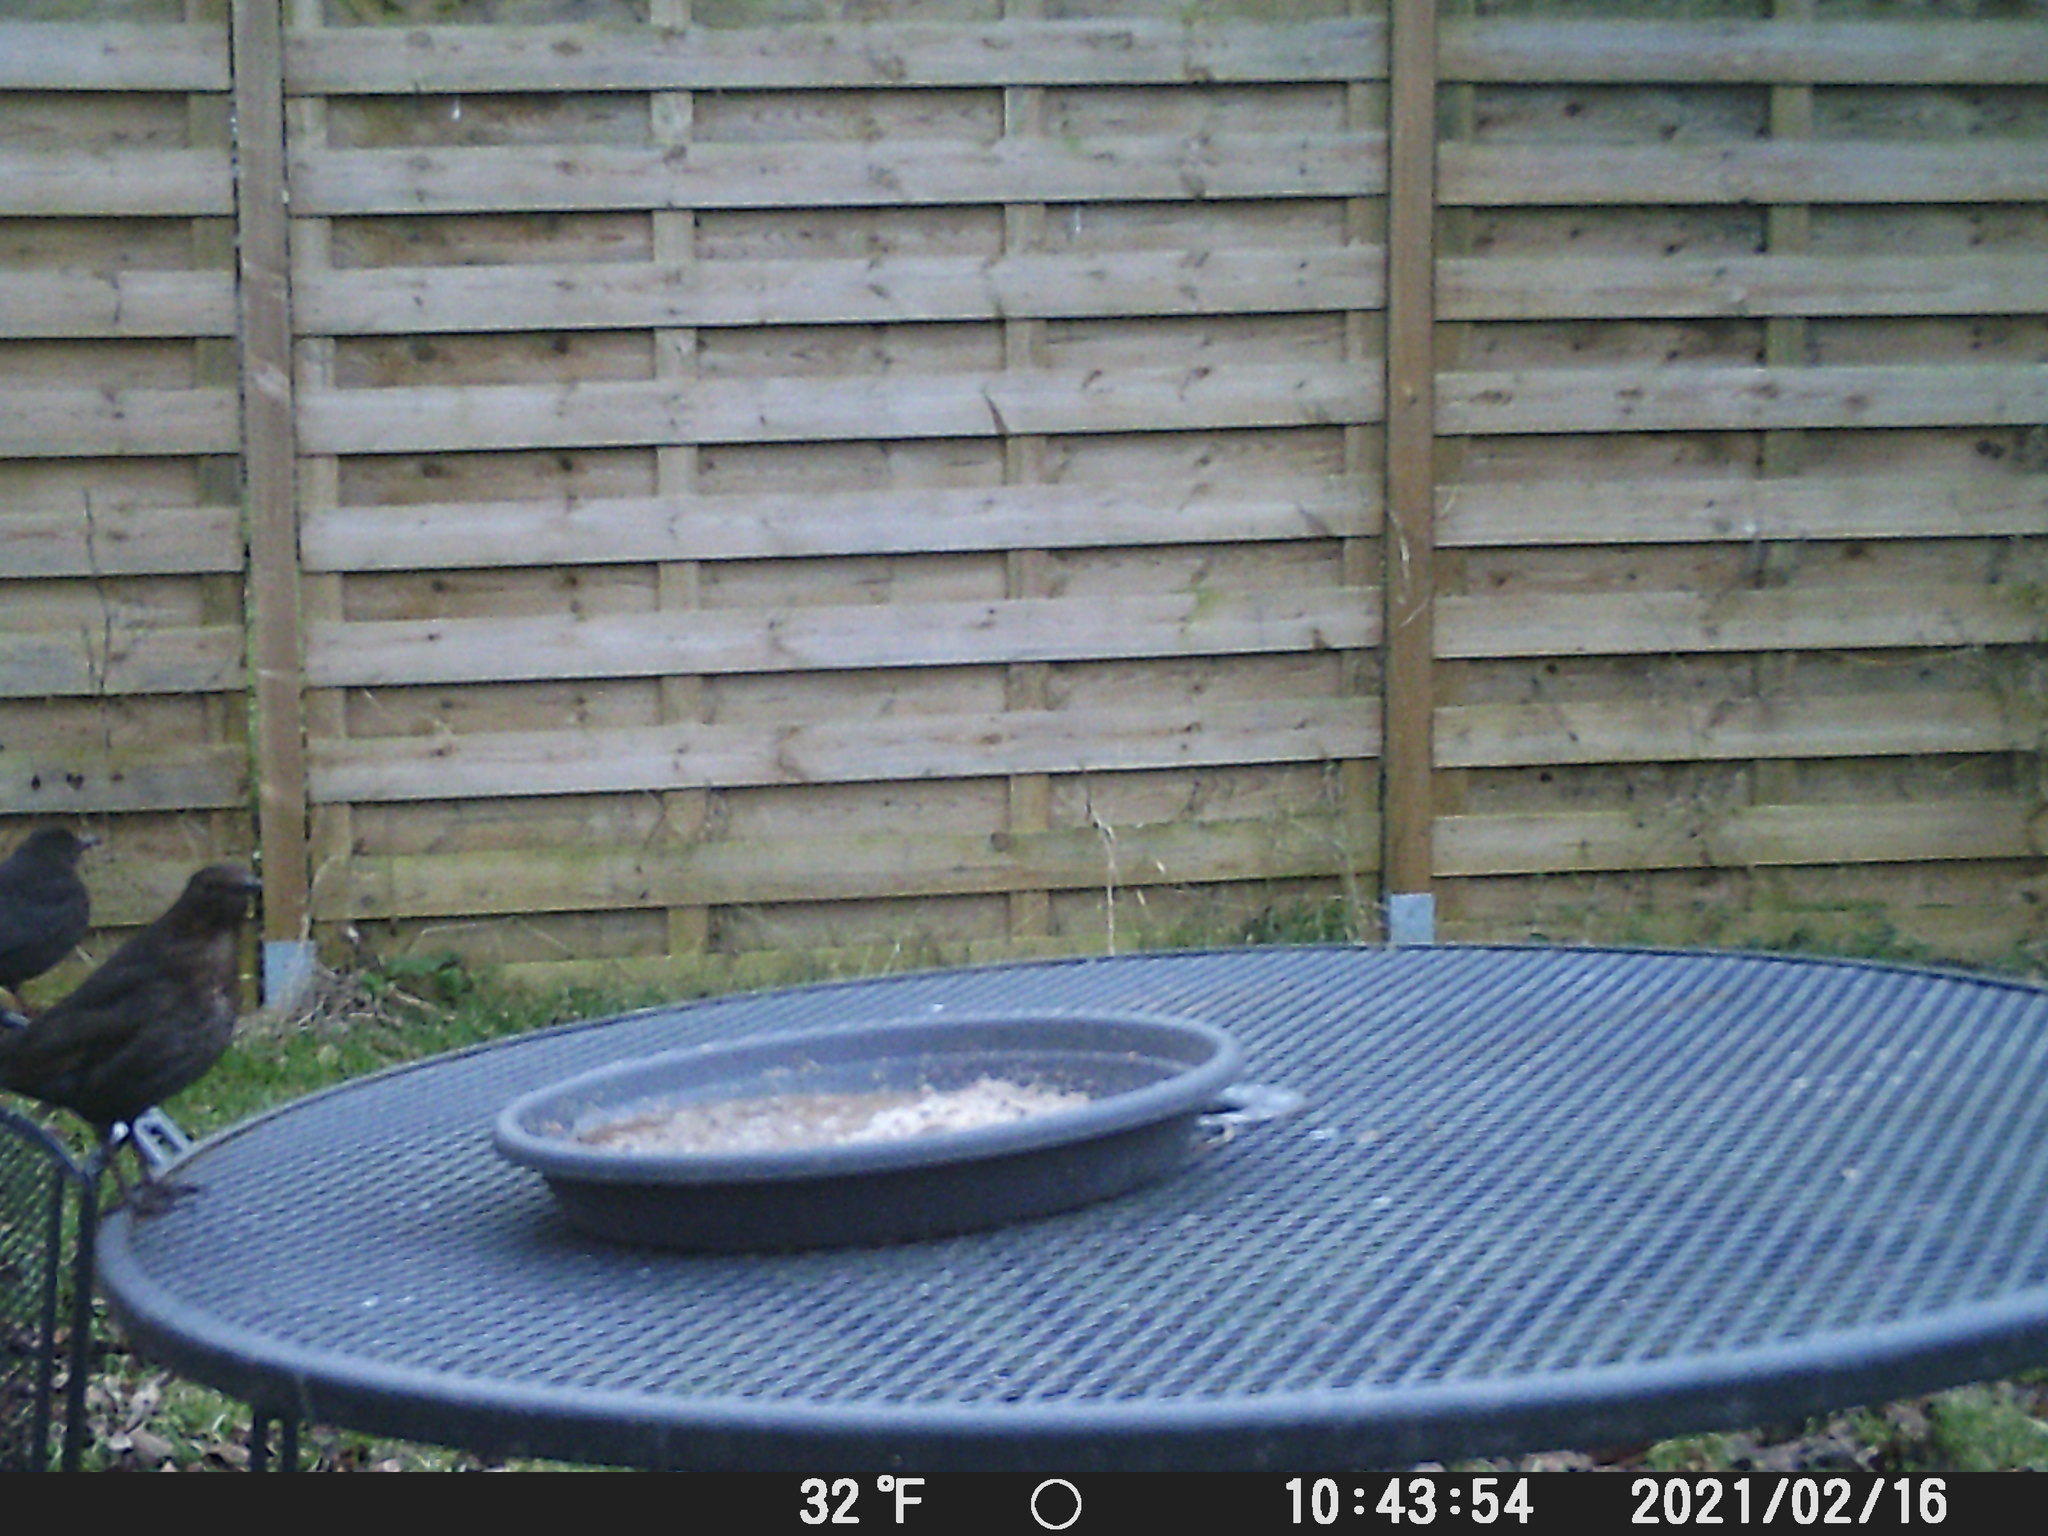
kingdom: Animalia
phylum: Chordata
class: Aves
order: Passeriformes
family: Turdidae
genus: Turdus
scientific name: Turdus merula
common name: Common blackbird
